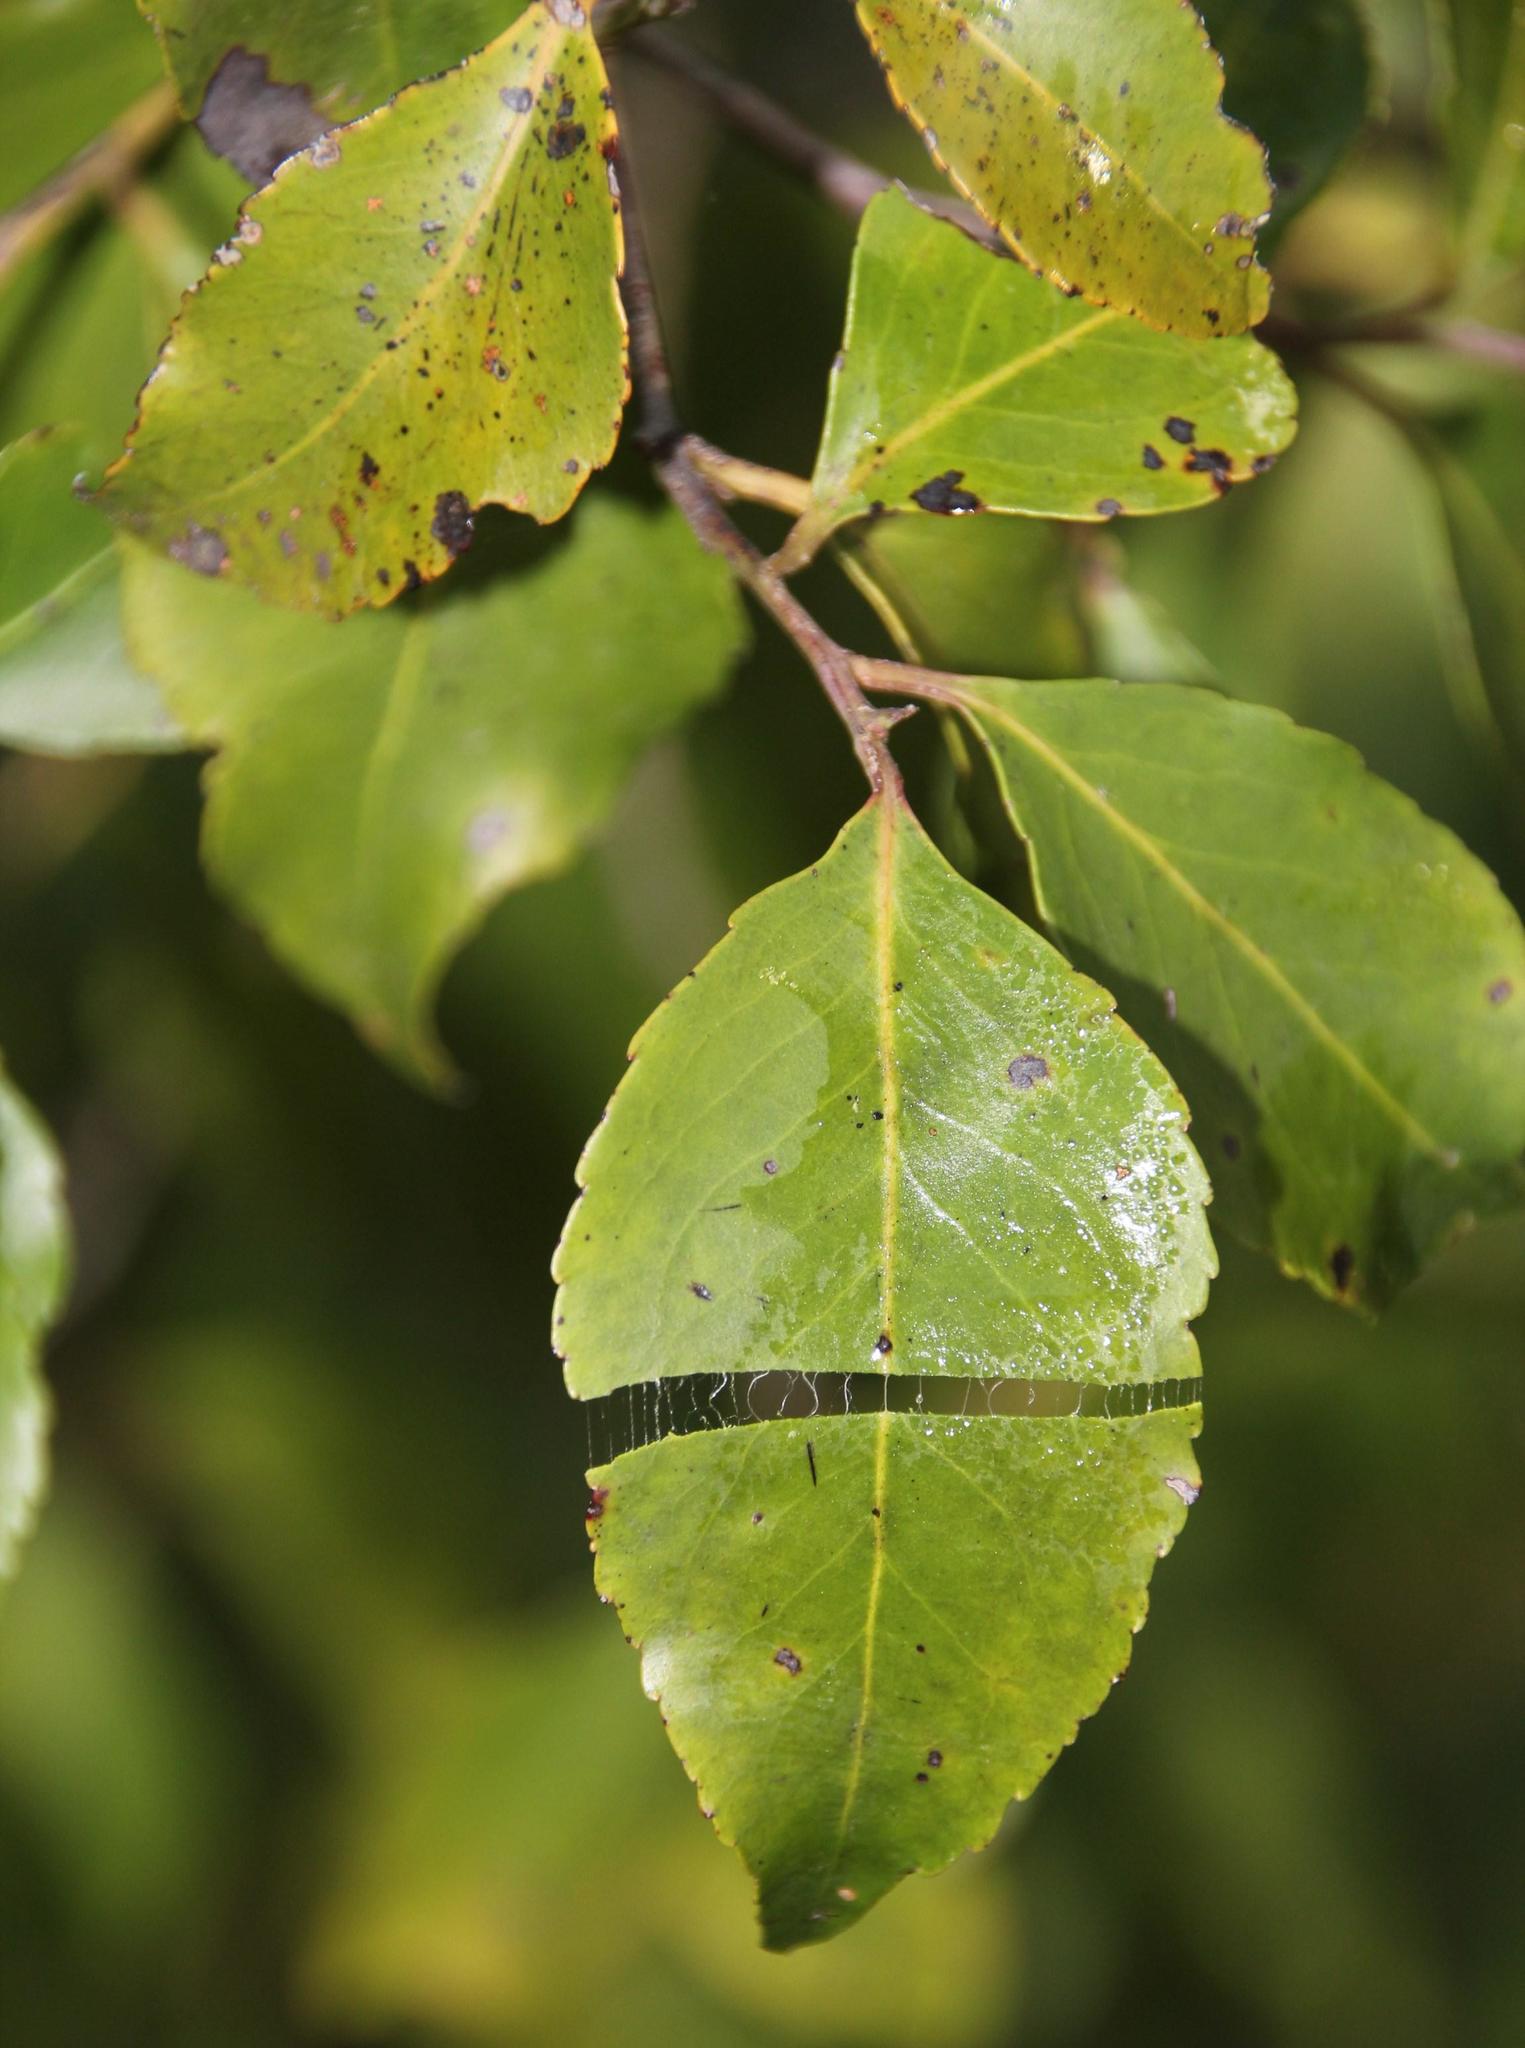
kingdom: Plantae
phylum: Tracheophyta
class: Magnoliopsida
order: Celastrales
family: Celastraceae
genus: Gymnosporia
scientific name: Gymnosporia acuminata
